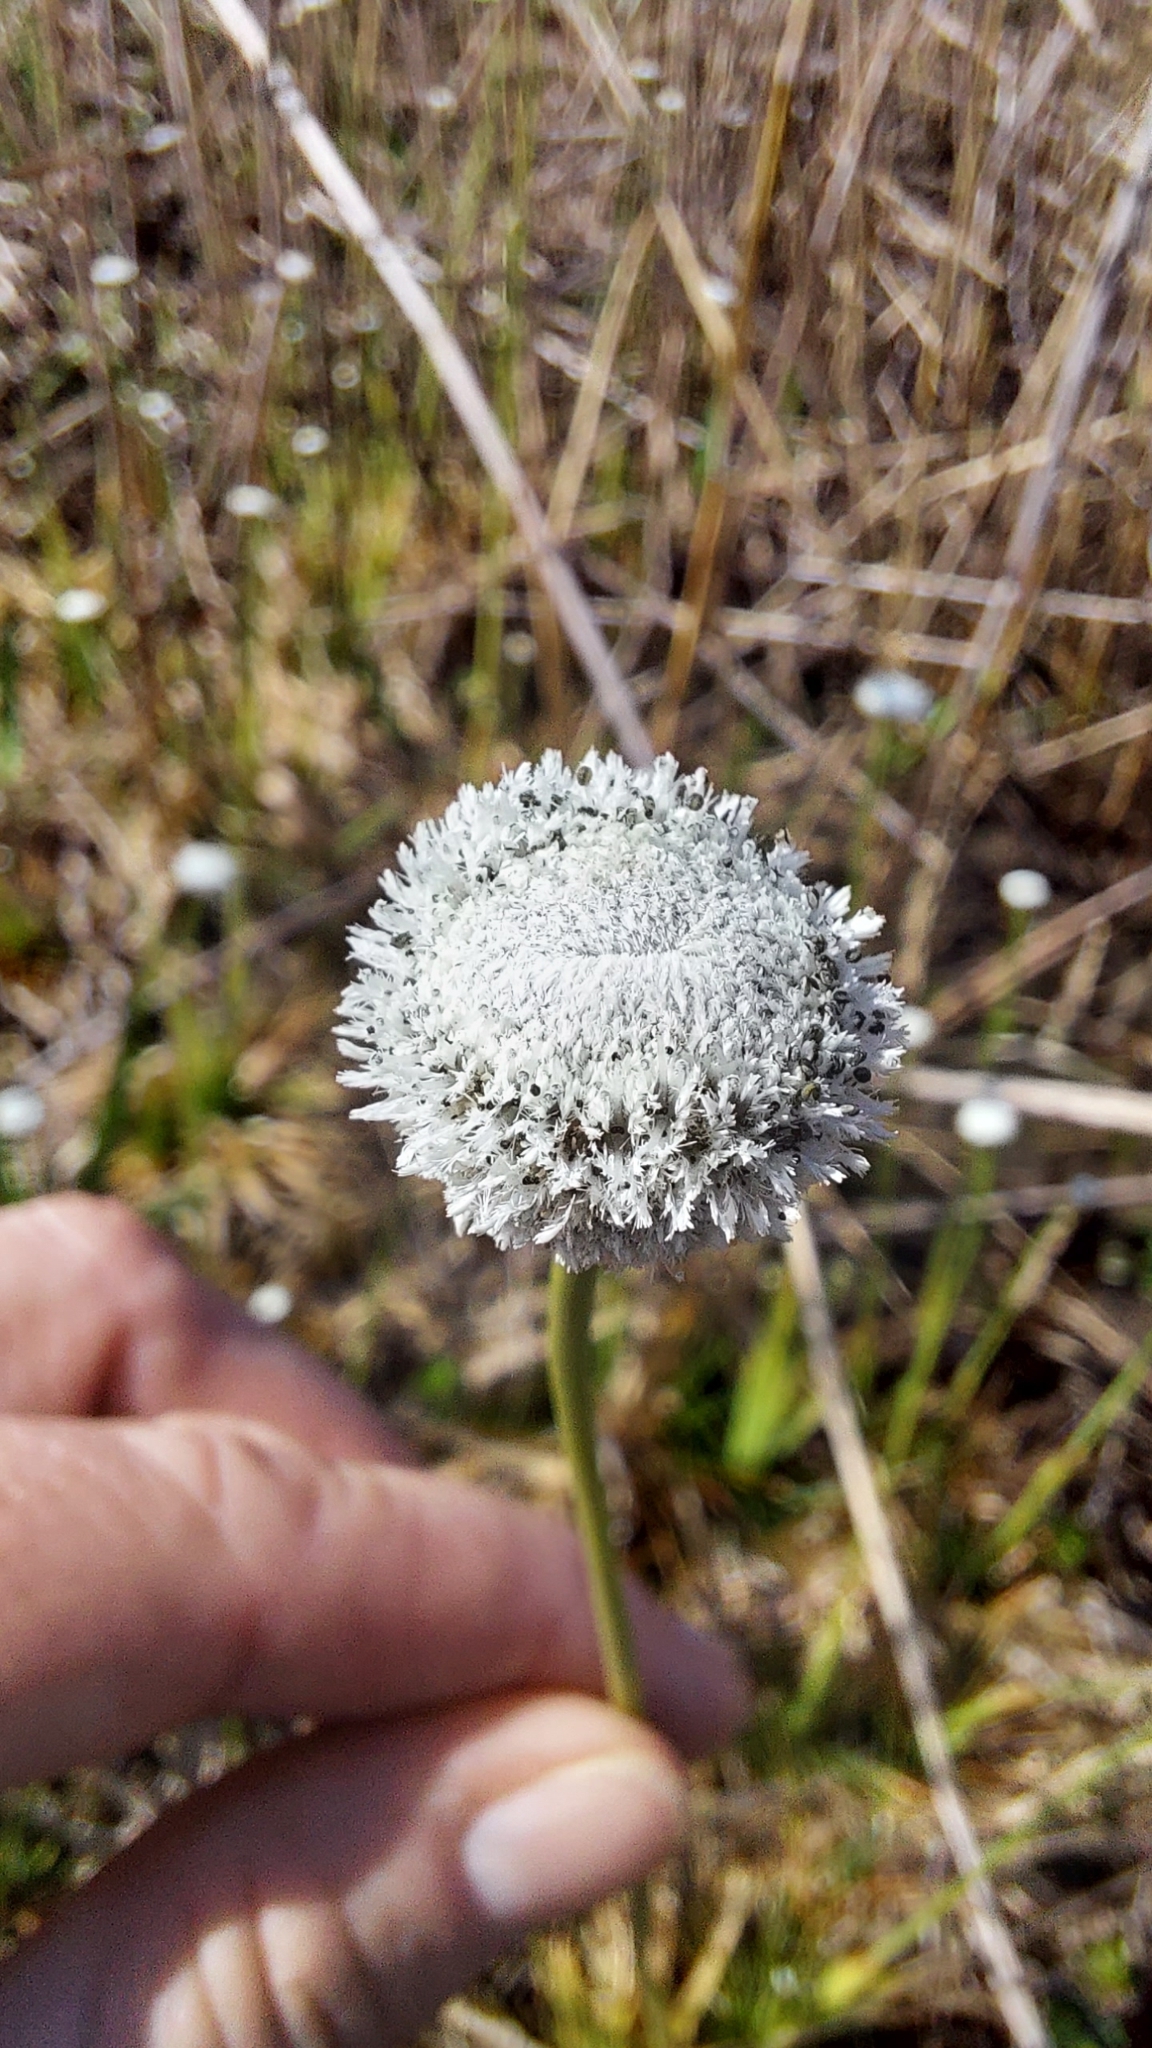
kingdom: Plantae
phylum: Tracheophyta
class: Liliopsida
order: Poales
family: Eriocaulaceae
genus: Eriocaulon
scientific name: Eriocaulon compressum
